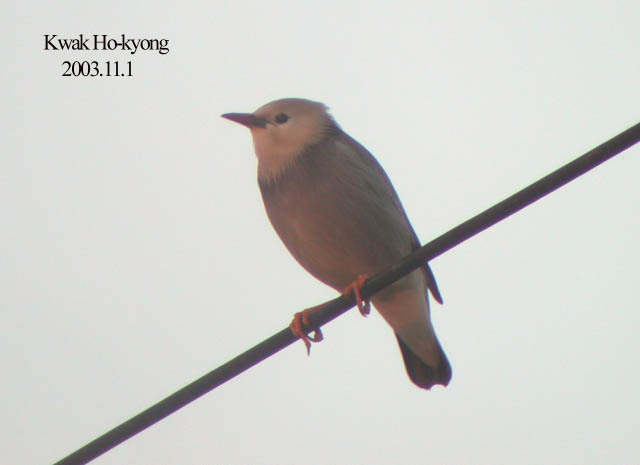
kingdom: Animalia
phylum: Chordata
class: Aves
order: Passeriformes
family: Sturnidae
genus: Spodiopsar
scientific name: Spodiopsar sericeus
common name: Red-billed starling
